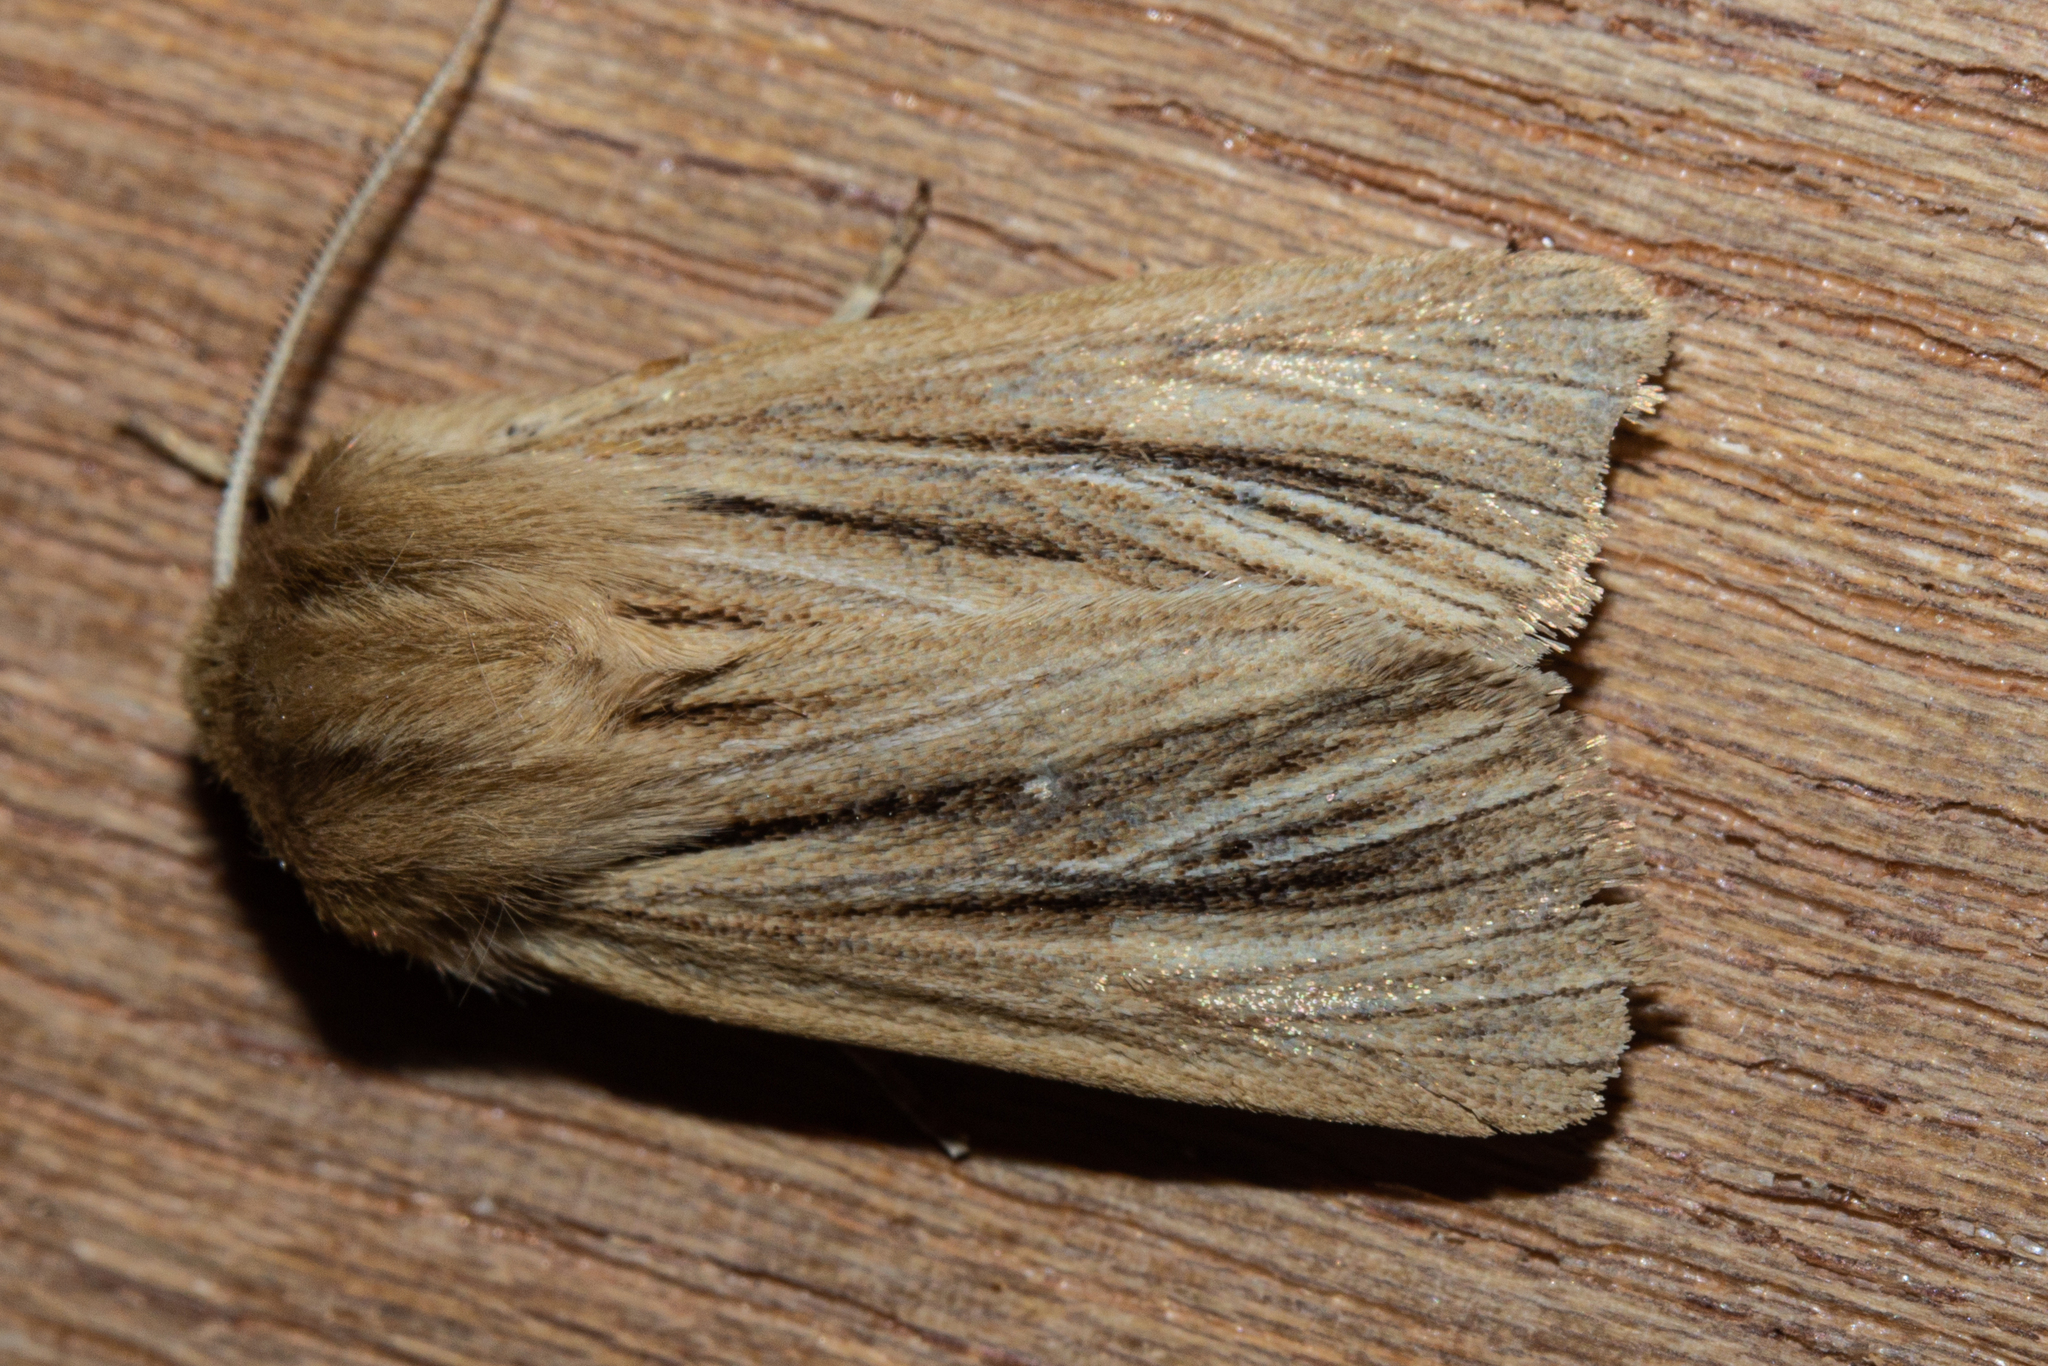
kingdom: Animalia
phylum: Arthropoda
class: Insecta
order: Lepidoptera
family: Noctuidae
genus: Ichneutica
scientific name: Ichneutica
